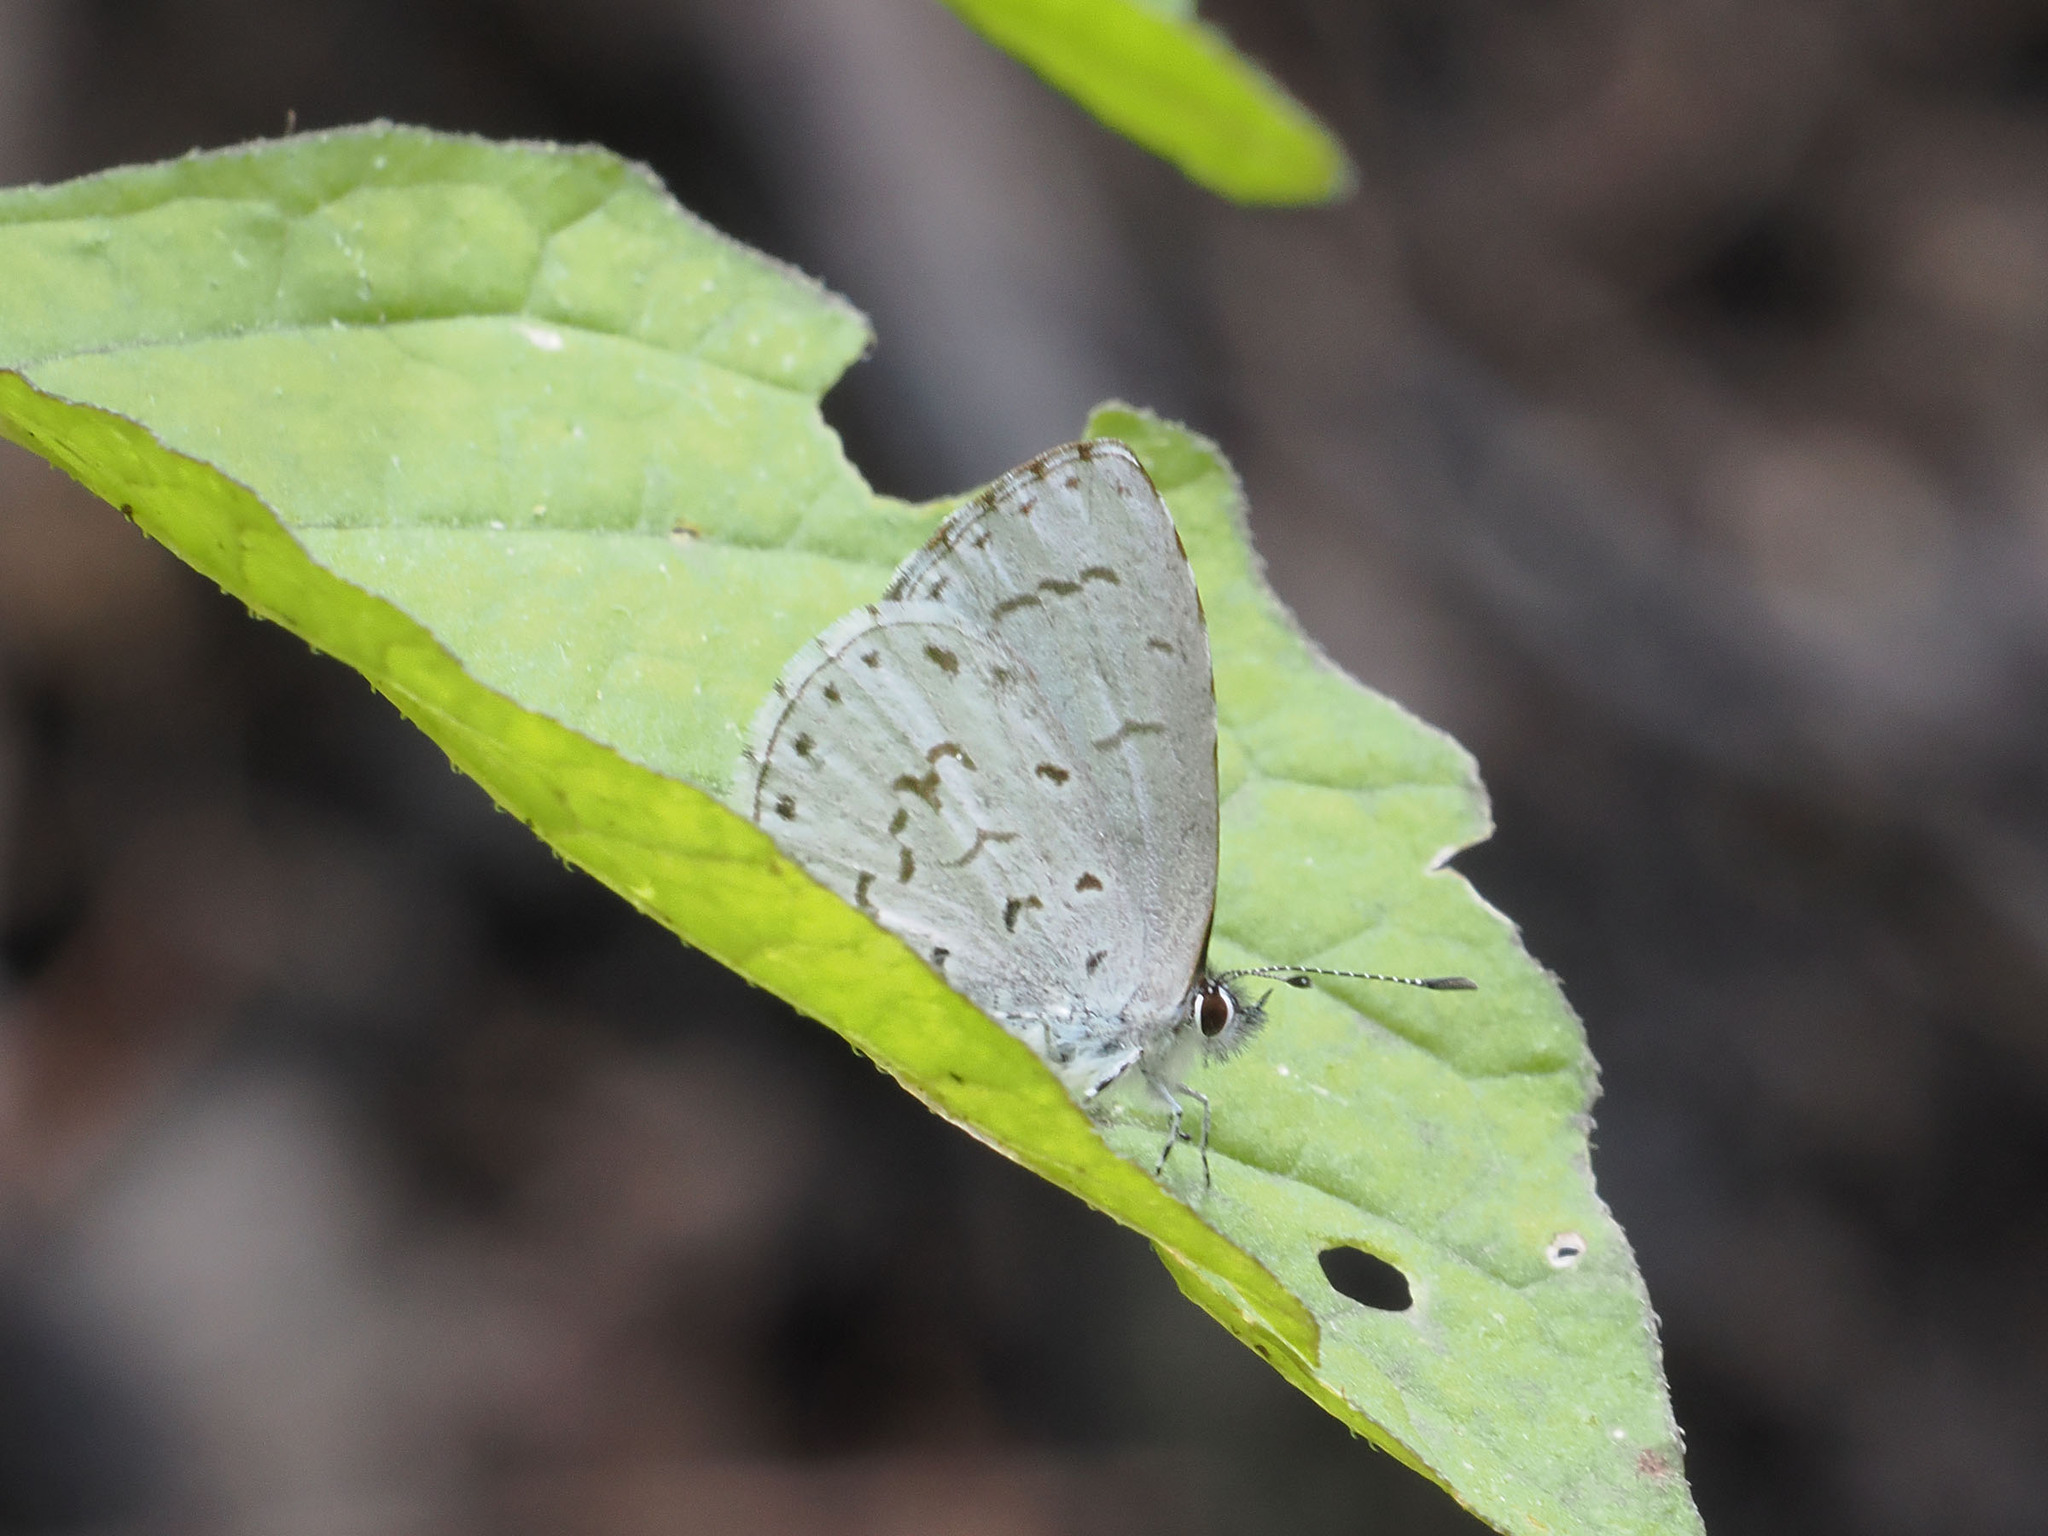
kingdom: Animalia
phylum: Arthropoda
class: Insecta
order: Lepidoptera
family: Lycaenidae
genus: Udara
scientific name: Udara drucei
